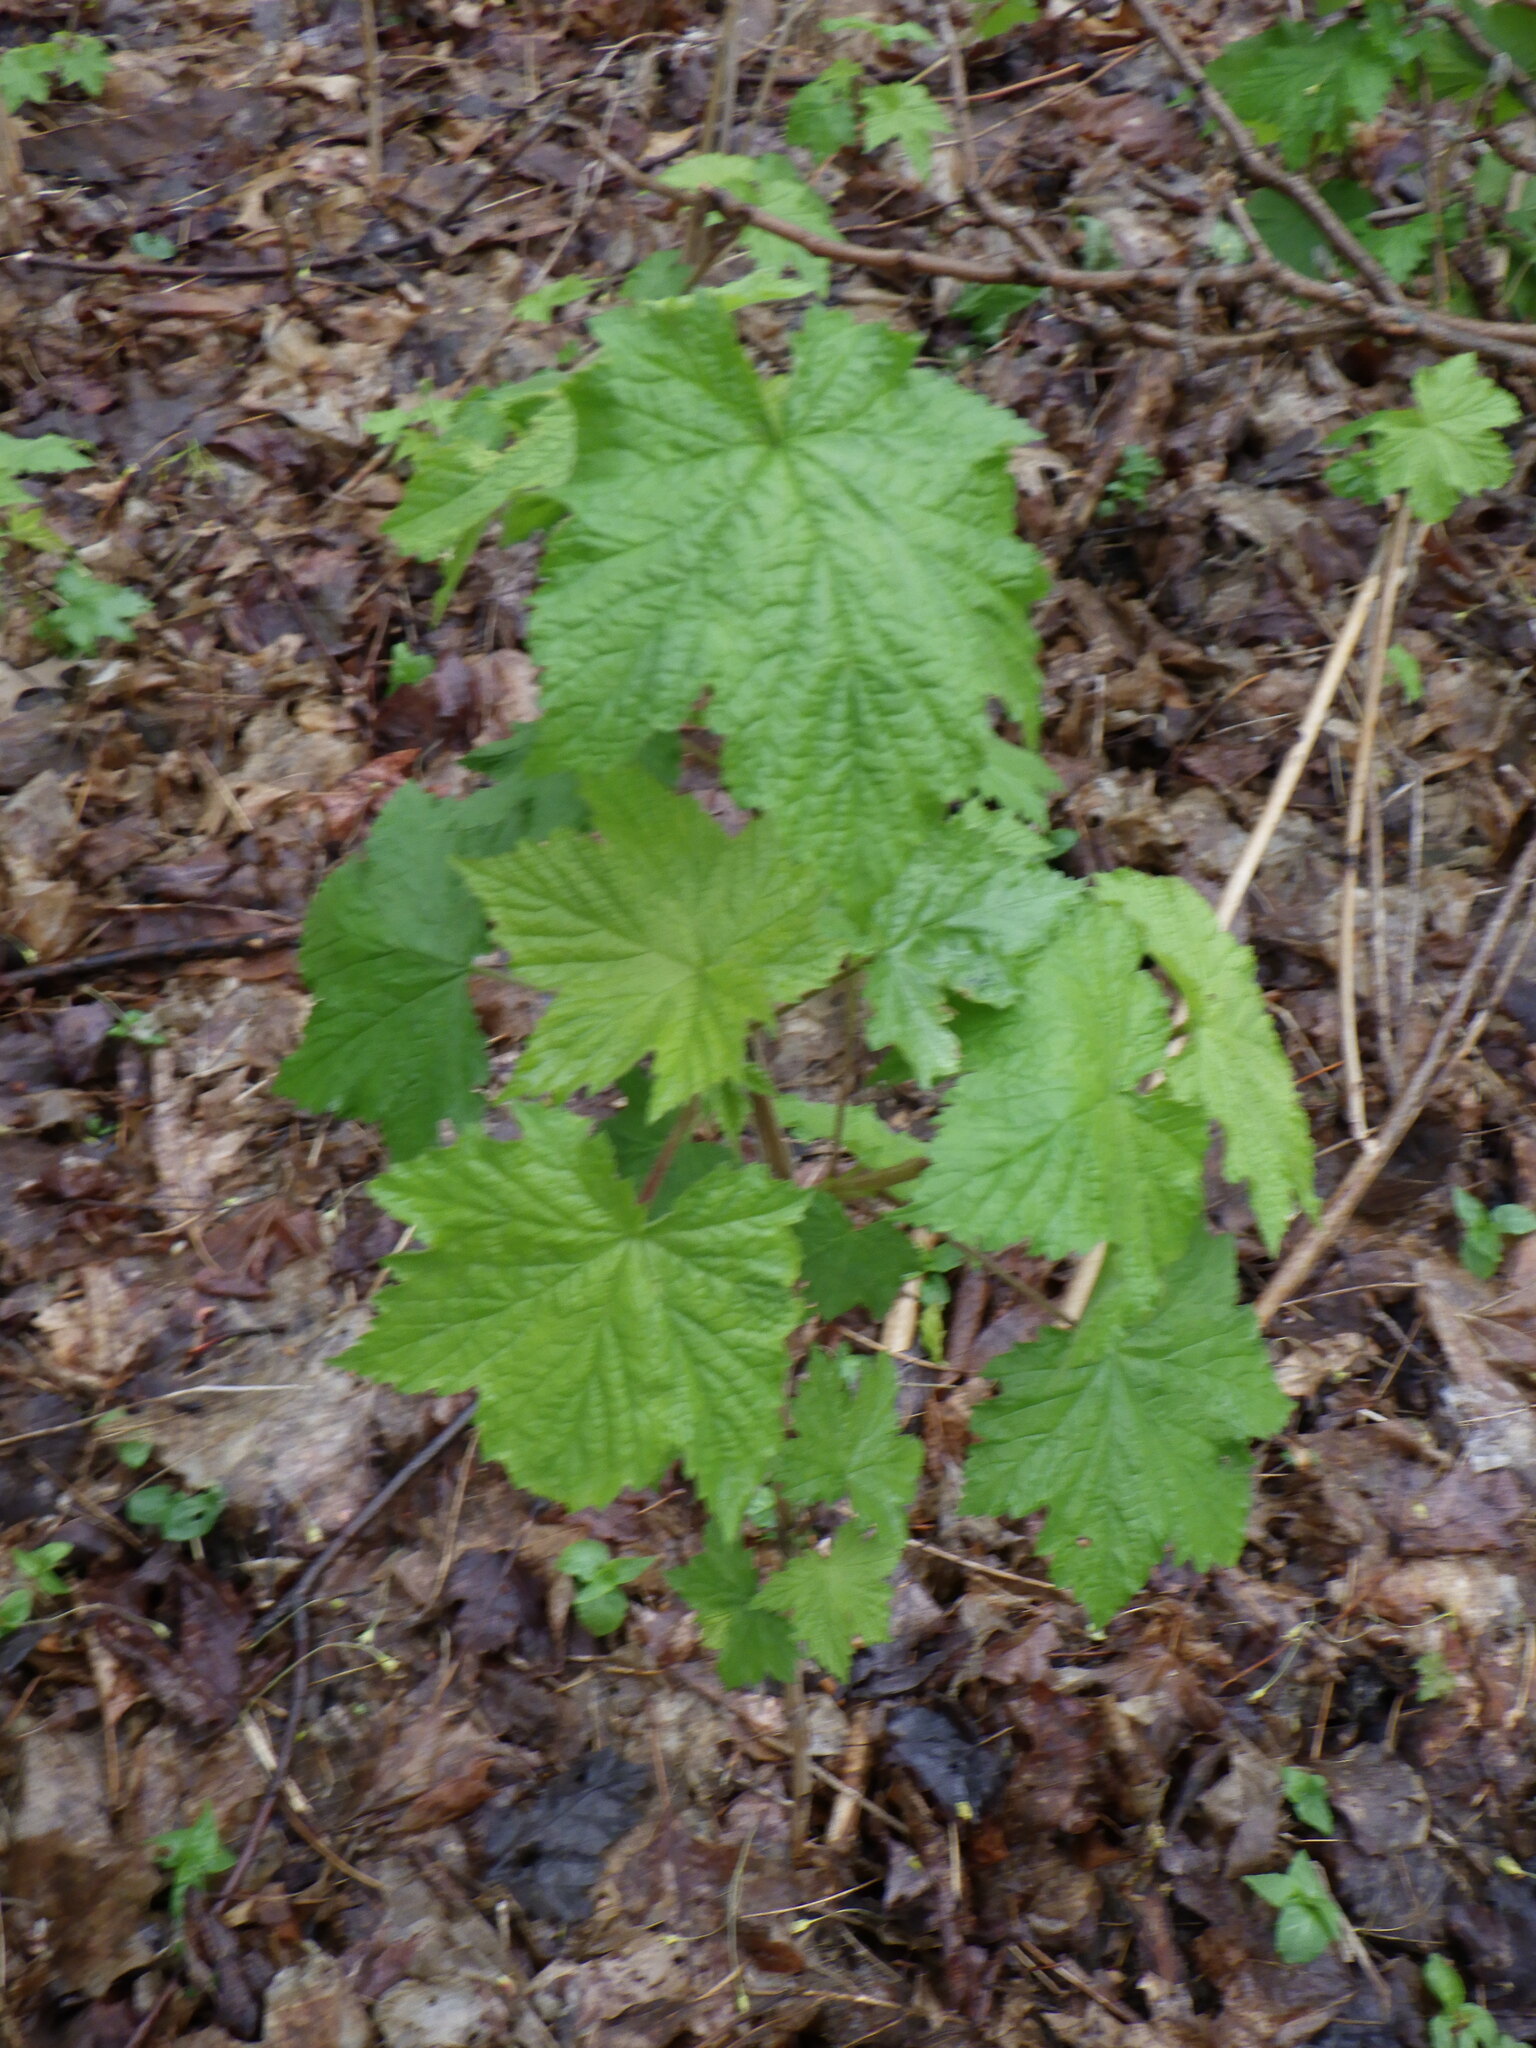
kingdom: Plantae
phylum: Tracheophyta
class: Magnoliopsida
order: Rosales
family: Rosaceae
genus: Rubus
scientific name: Rubus odoratus
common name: Purple-flowered raspberry
